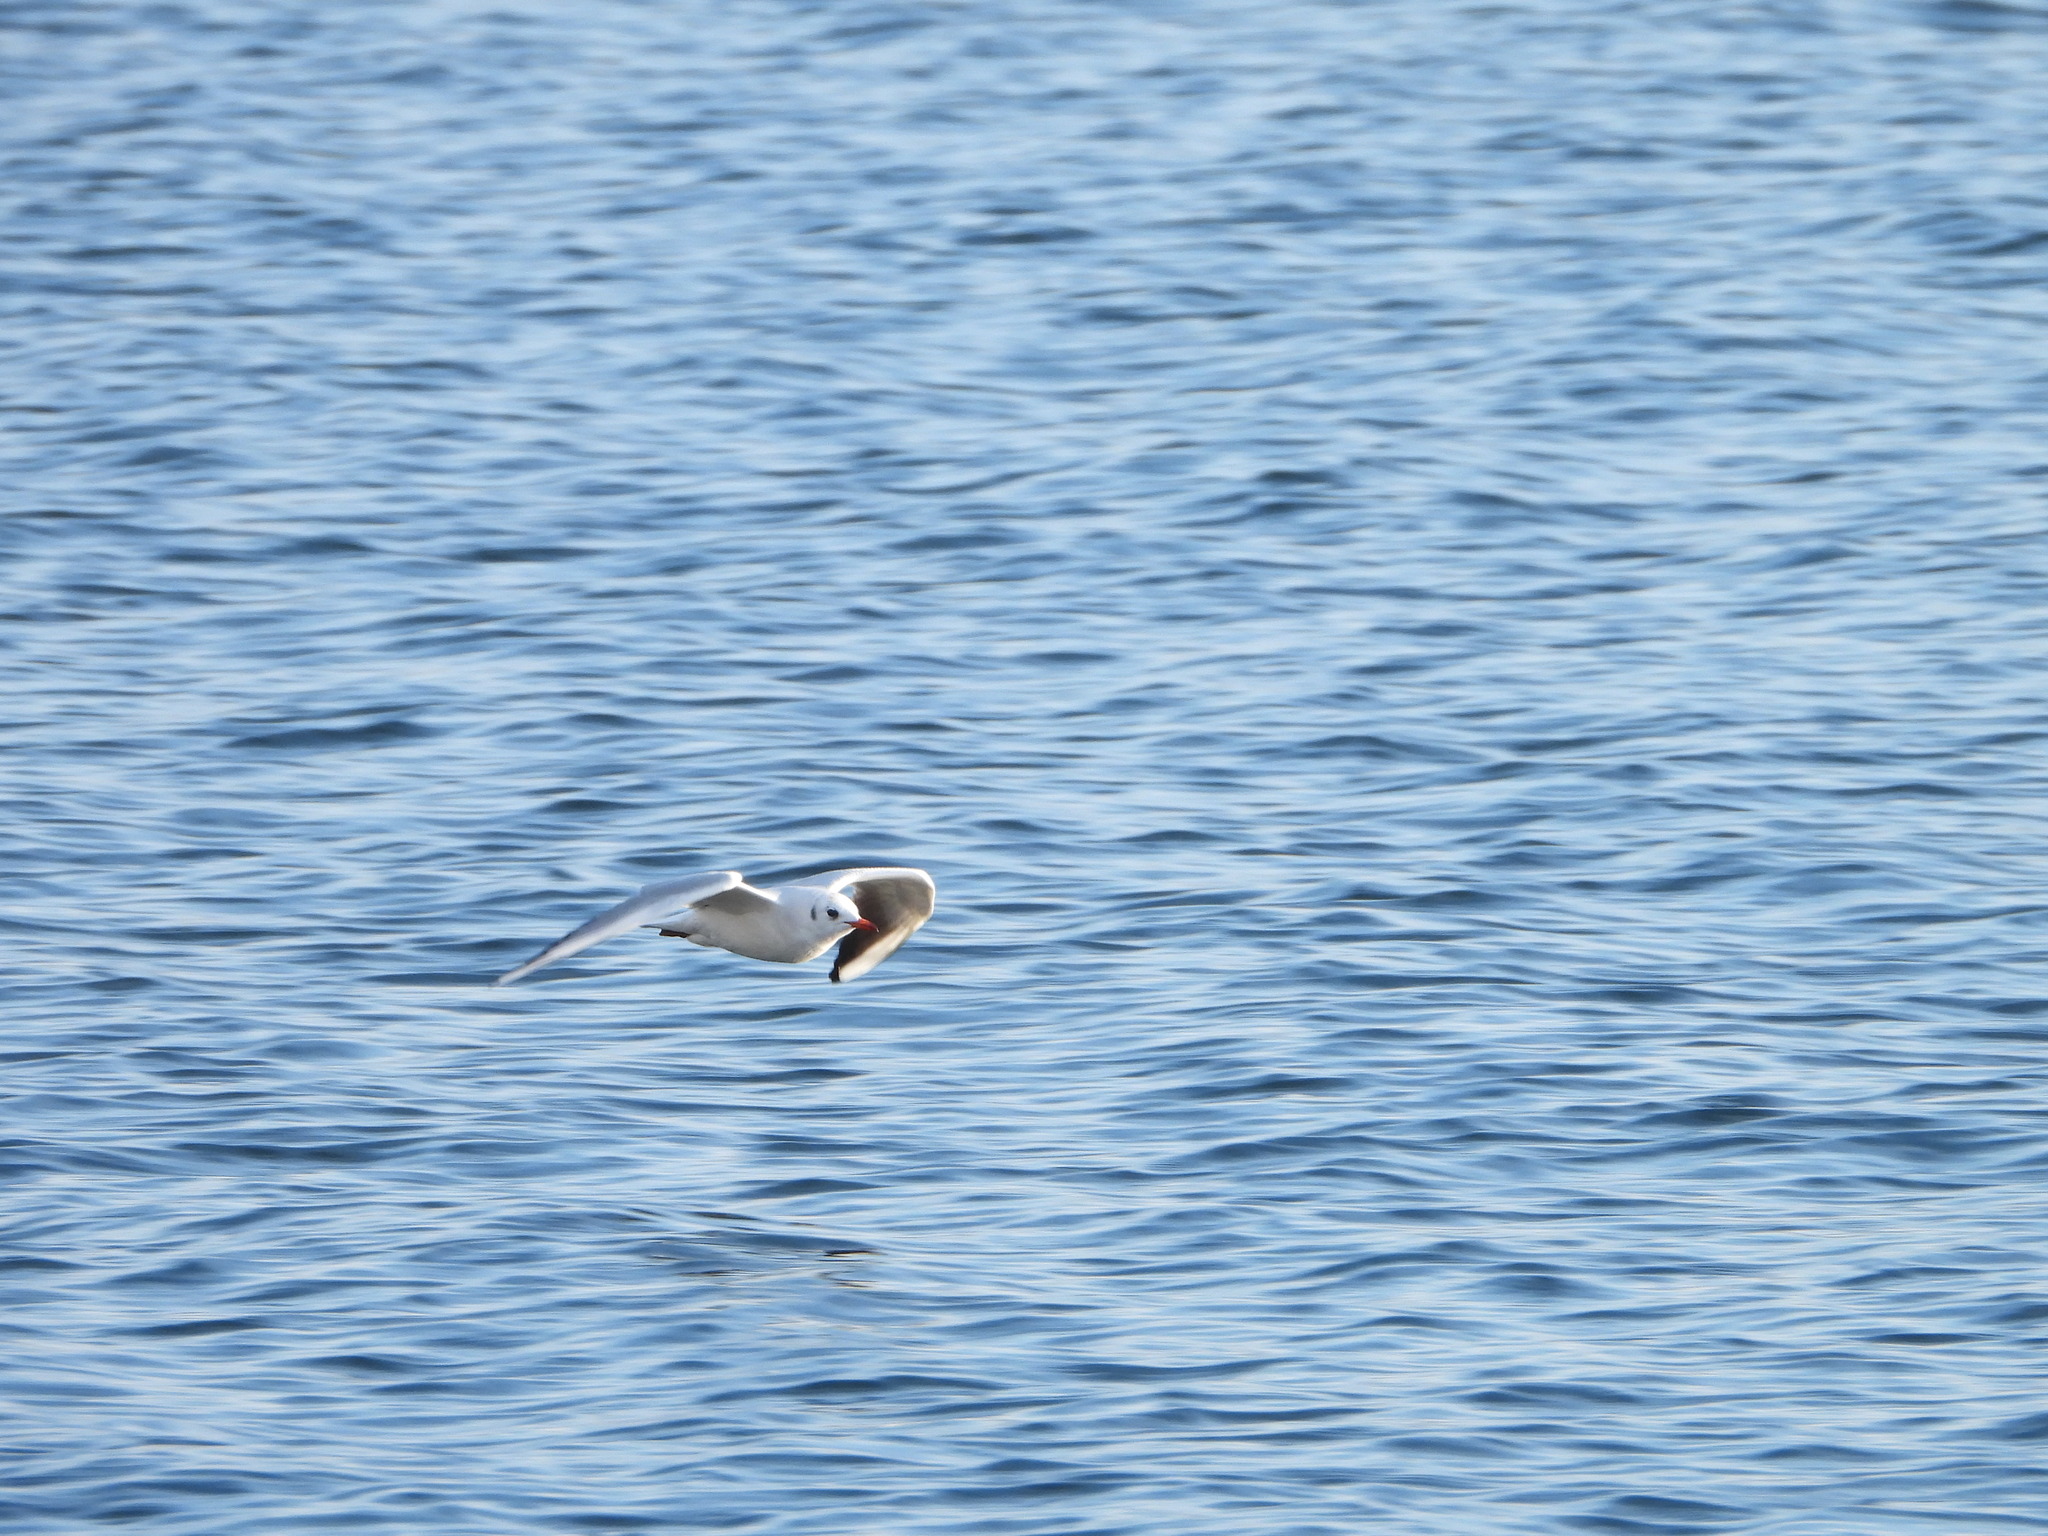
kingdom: Animalia
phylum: Chordata
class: Aves
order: Charadriiformes
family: Laridae
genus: Chroicocephalus
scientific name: Chroicocephalus ridibundus
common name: Black-headed gull
